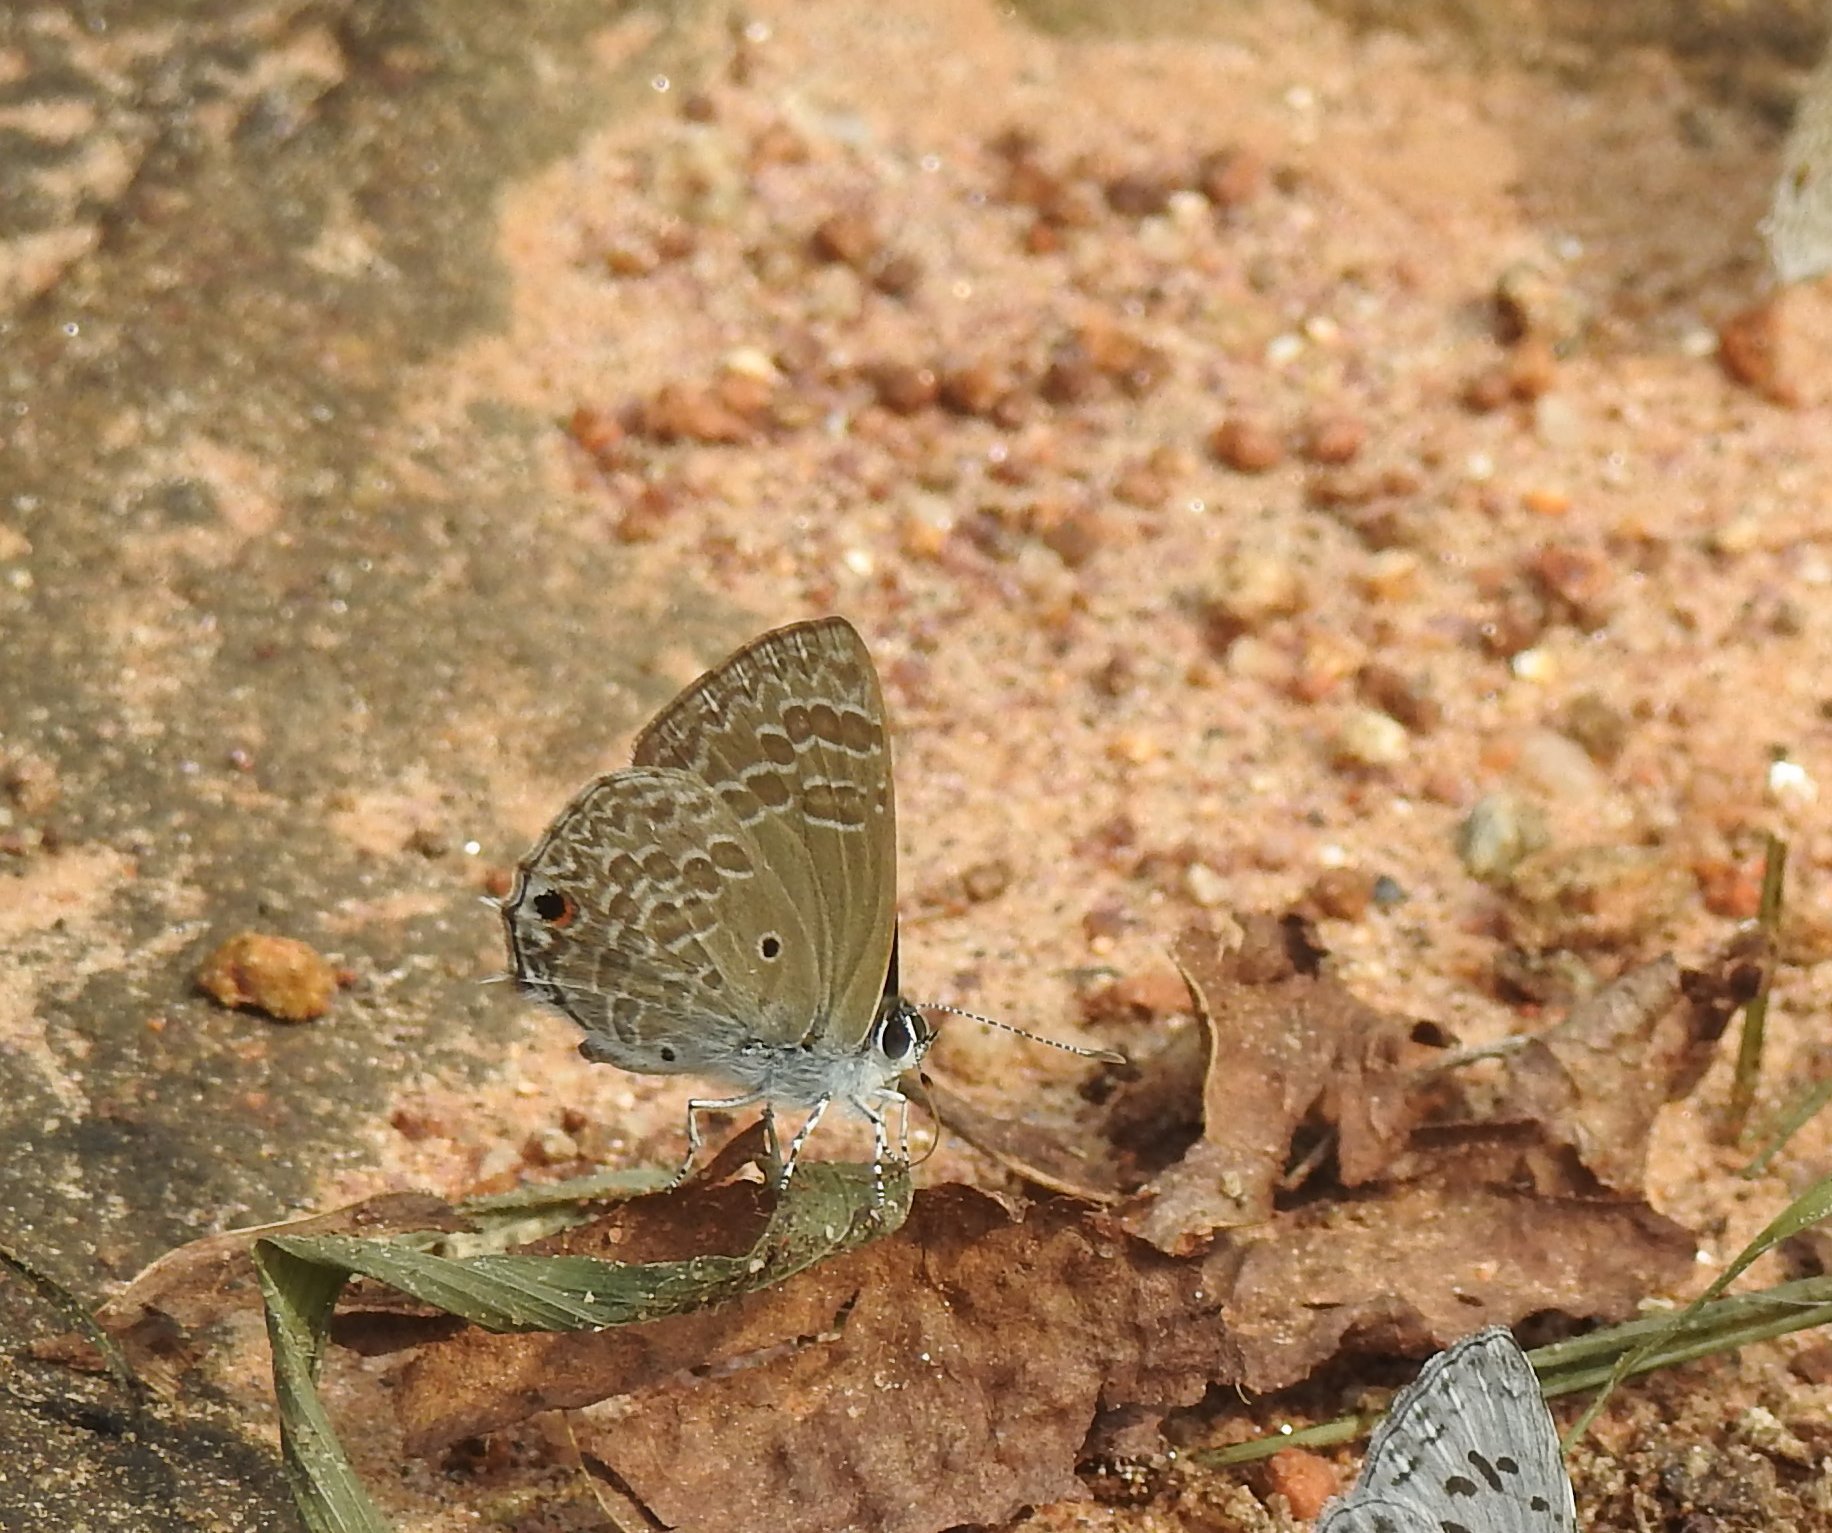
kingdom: Animalia
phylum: Arthropoda
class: Insecta
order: Lepidoptera
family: Lycaenidae
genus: Anthene
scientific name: Anthene lycaenina
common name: Pointed ciliate blue
